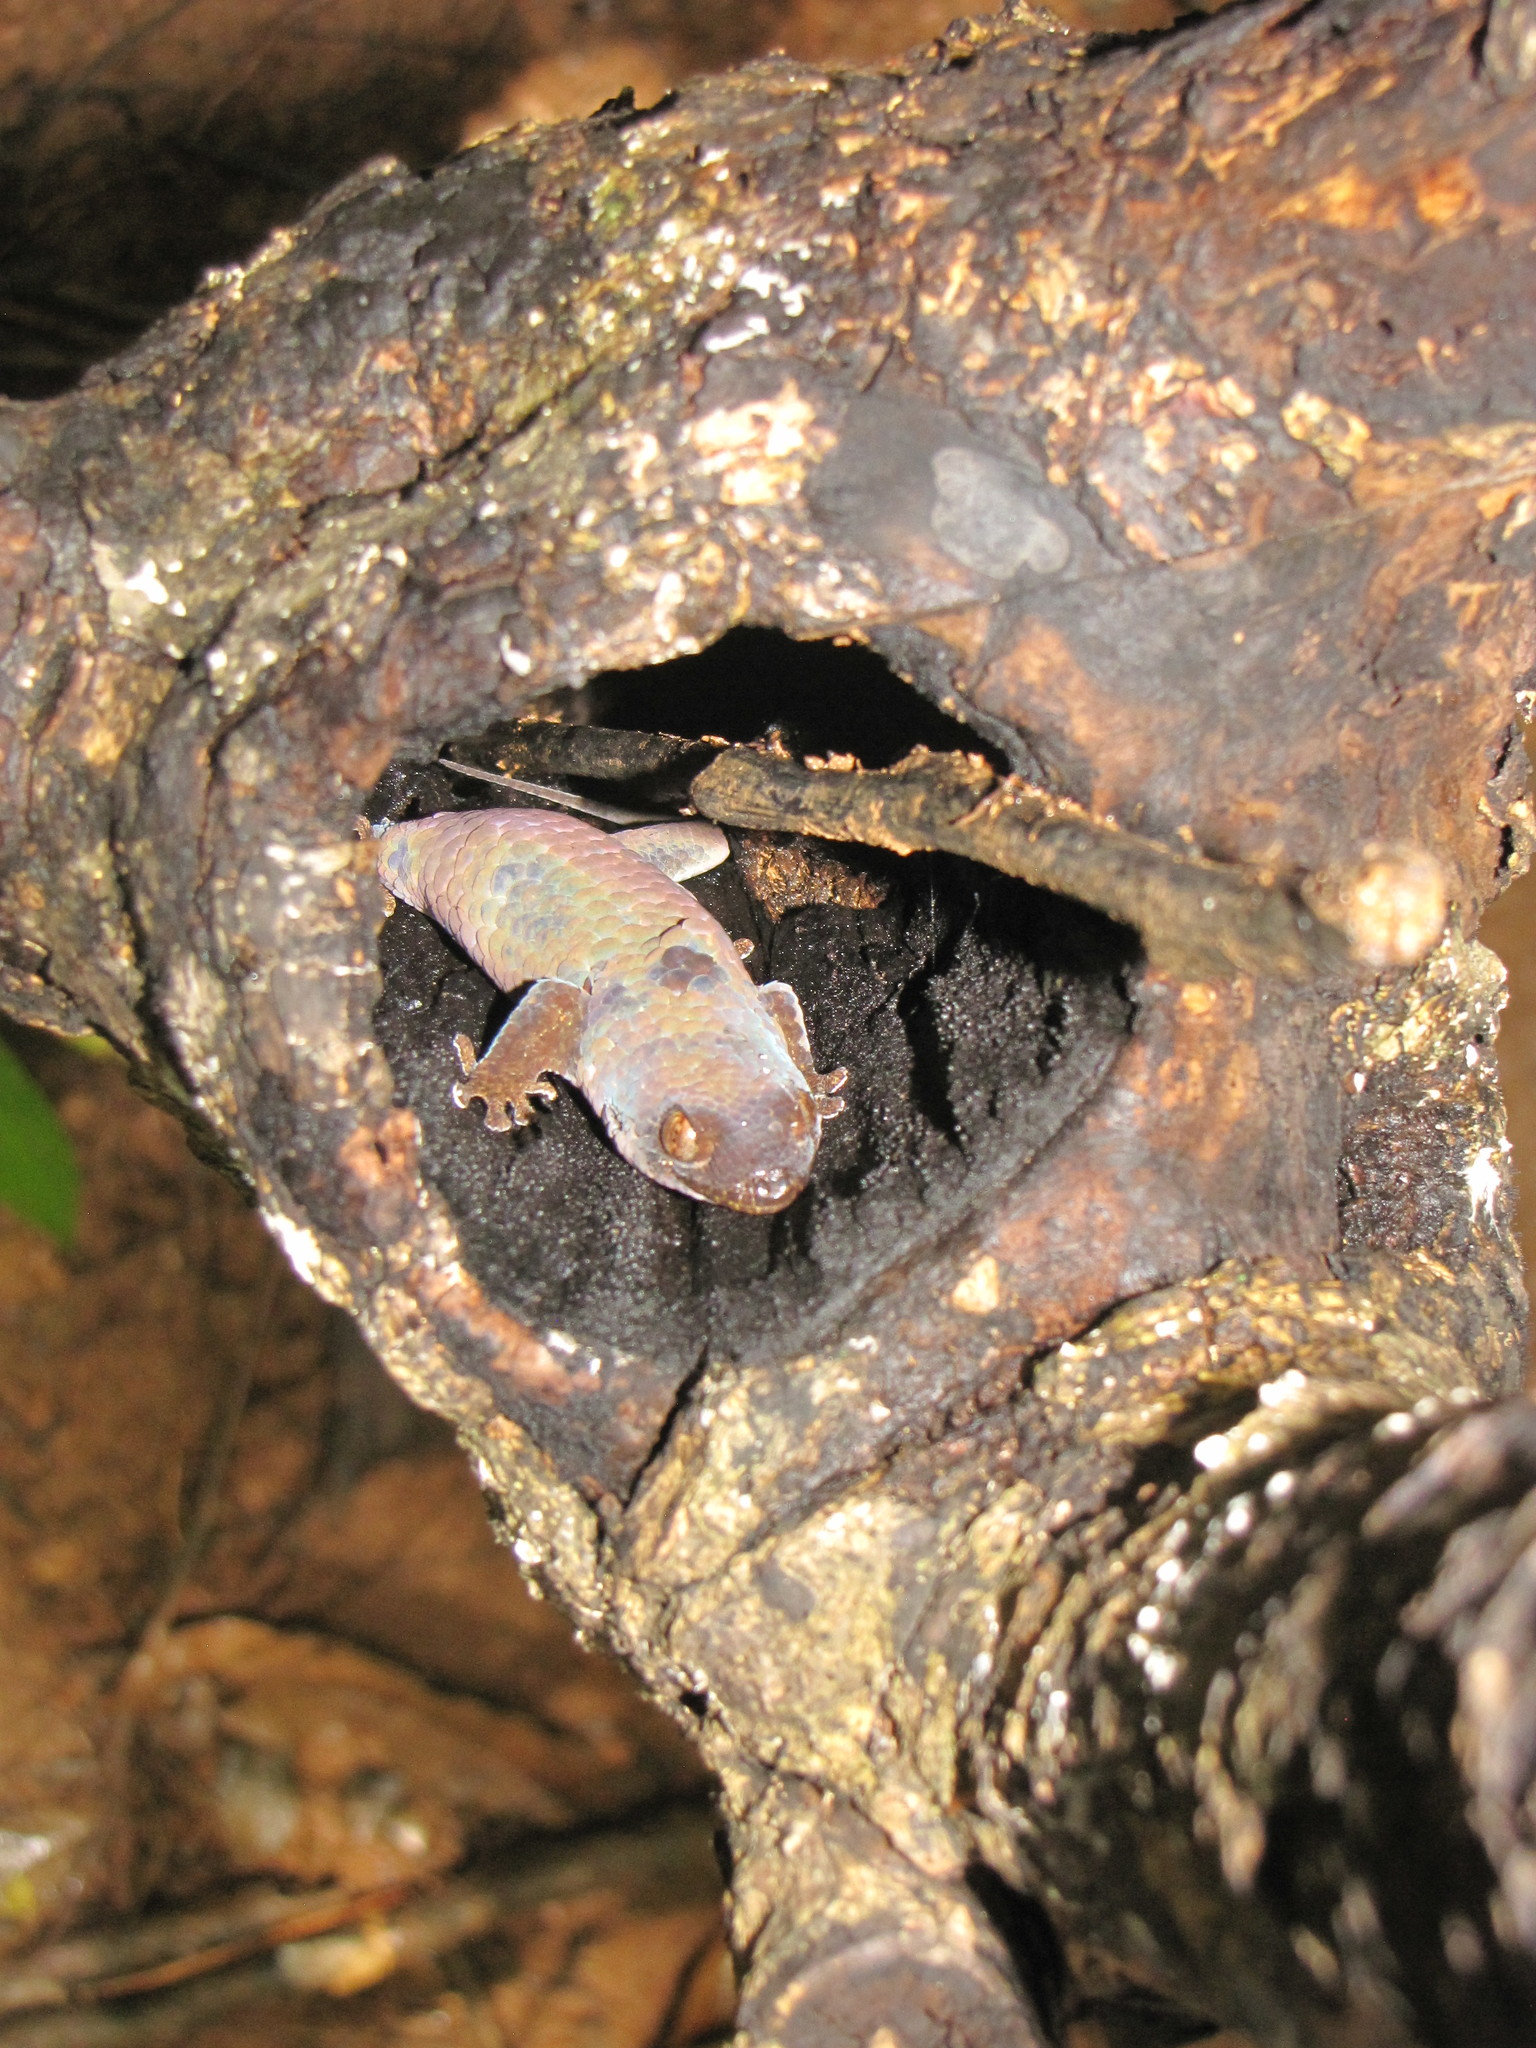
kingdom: Animalia
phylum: Chordata
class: Squamata
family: Gekkonidae
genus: Geckolepis
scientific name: Geckolepis maculata
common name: Peters' spotted gecko
